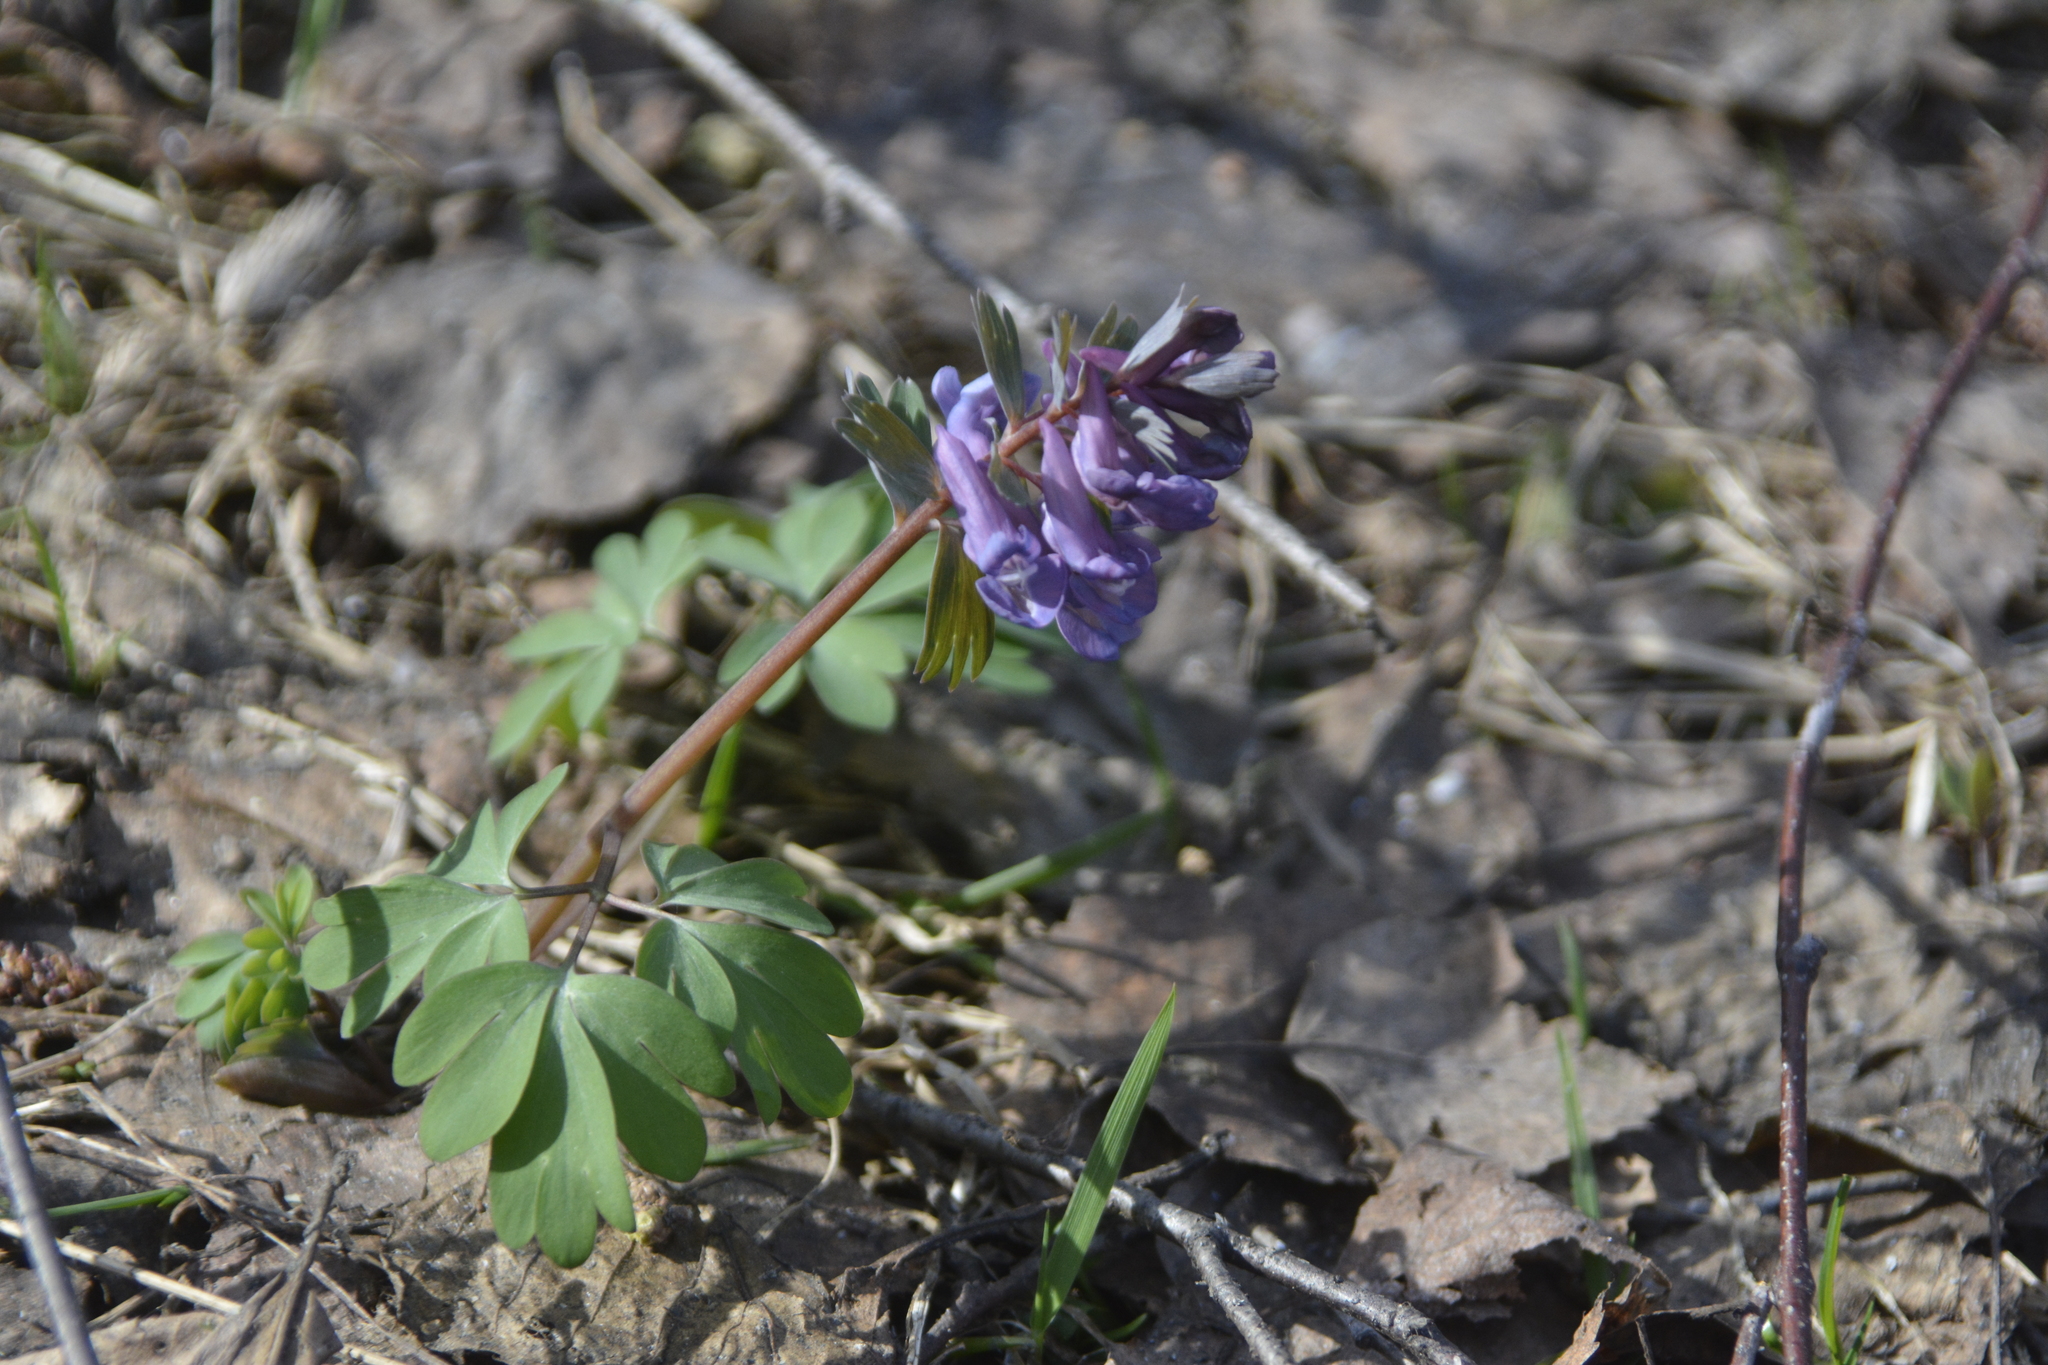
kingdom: Plantae
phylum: Tracheophyta
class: Magnoliopsida
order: Ranunculales
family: Papaveraceae
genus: Corydalis
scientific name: Corydalis solida
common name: Bird-in-a-bush
